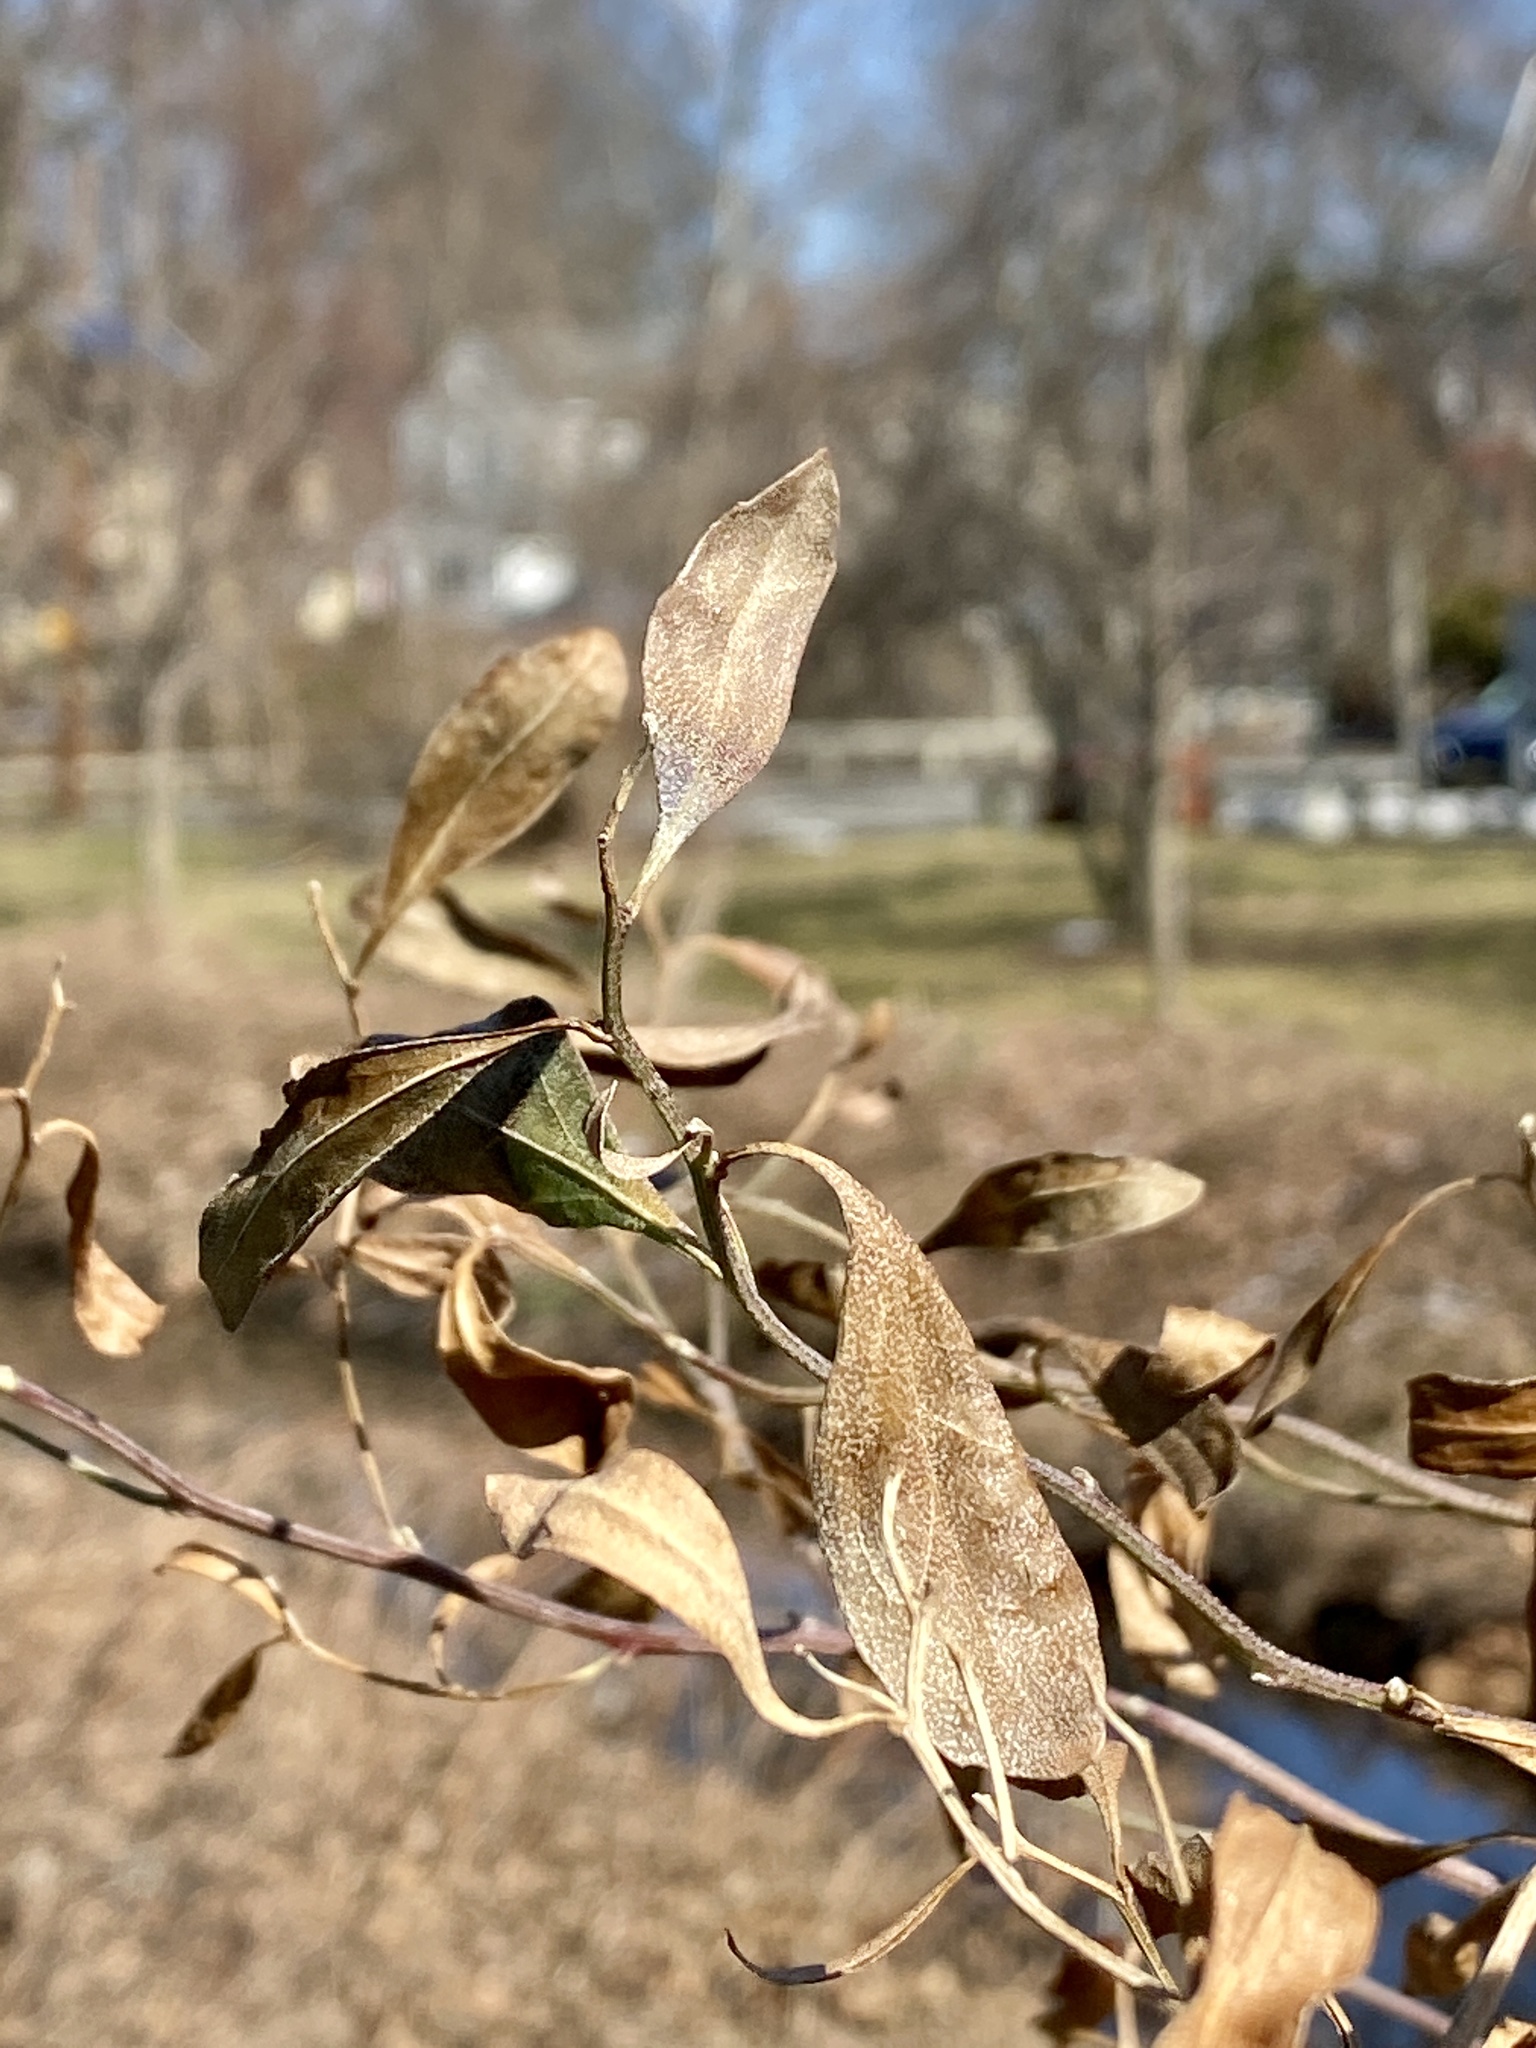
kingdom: Plantae
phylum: Tracheophyta
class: Magnoliopsida
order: Asterales
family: Asteraceae
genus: Baccharis
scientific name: Baccharis halimifolia
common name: Eastern baccharis
